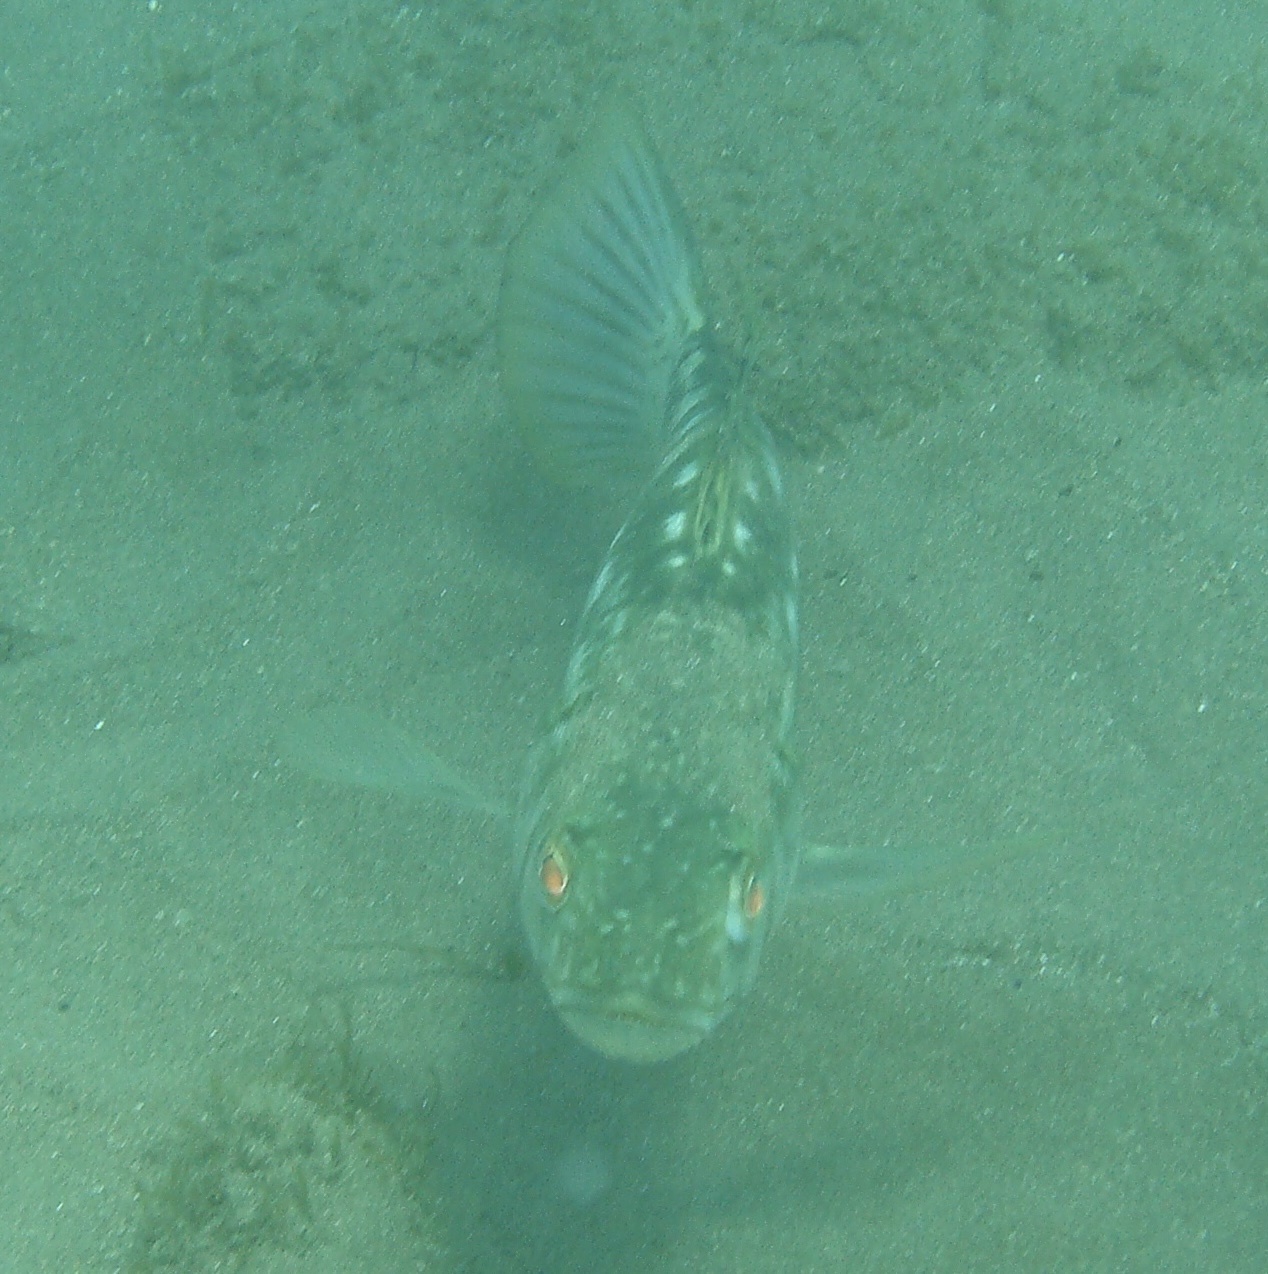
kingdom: Animalia
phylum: Chordata
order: Perciformes
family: Serranidae
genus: Paralabrax
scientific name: Paralabrax clathratus
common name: Kelp bass
